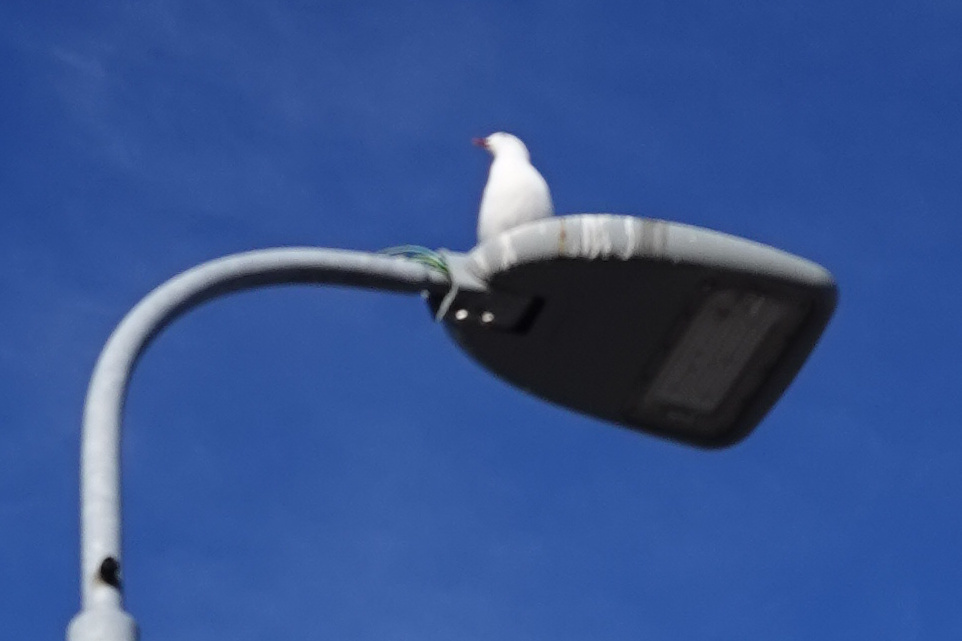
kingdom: Animalia
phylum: Chordata
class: Aves
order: Charadriiformes
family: Laridae
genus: Chroicocephalus
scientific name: Chroicocephalus novaehollandiae
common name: Silver gull
